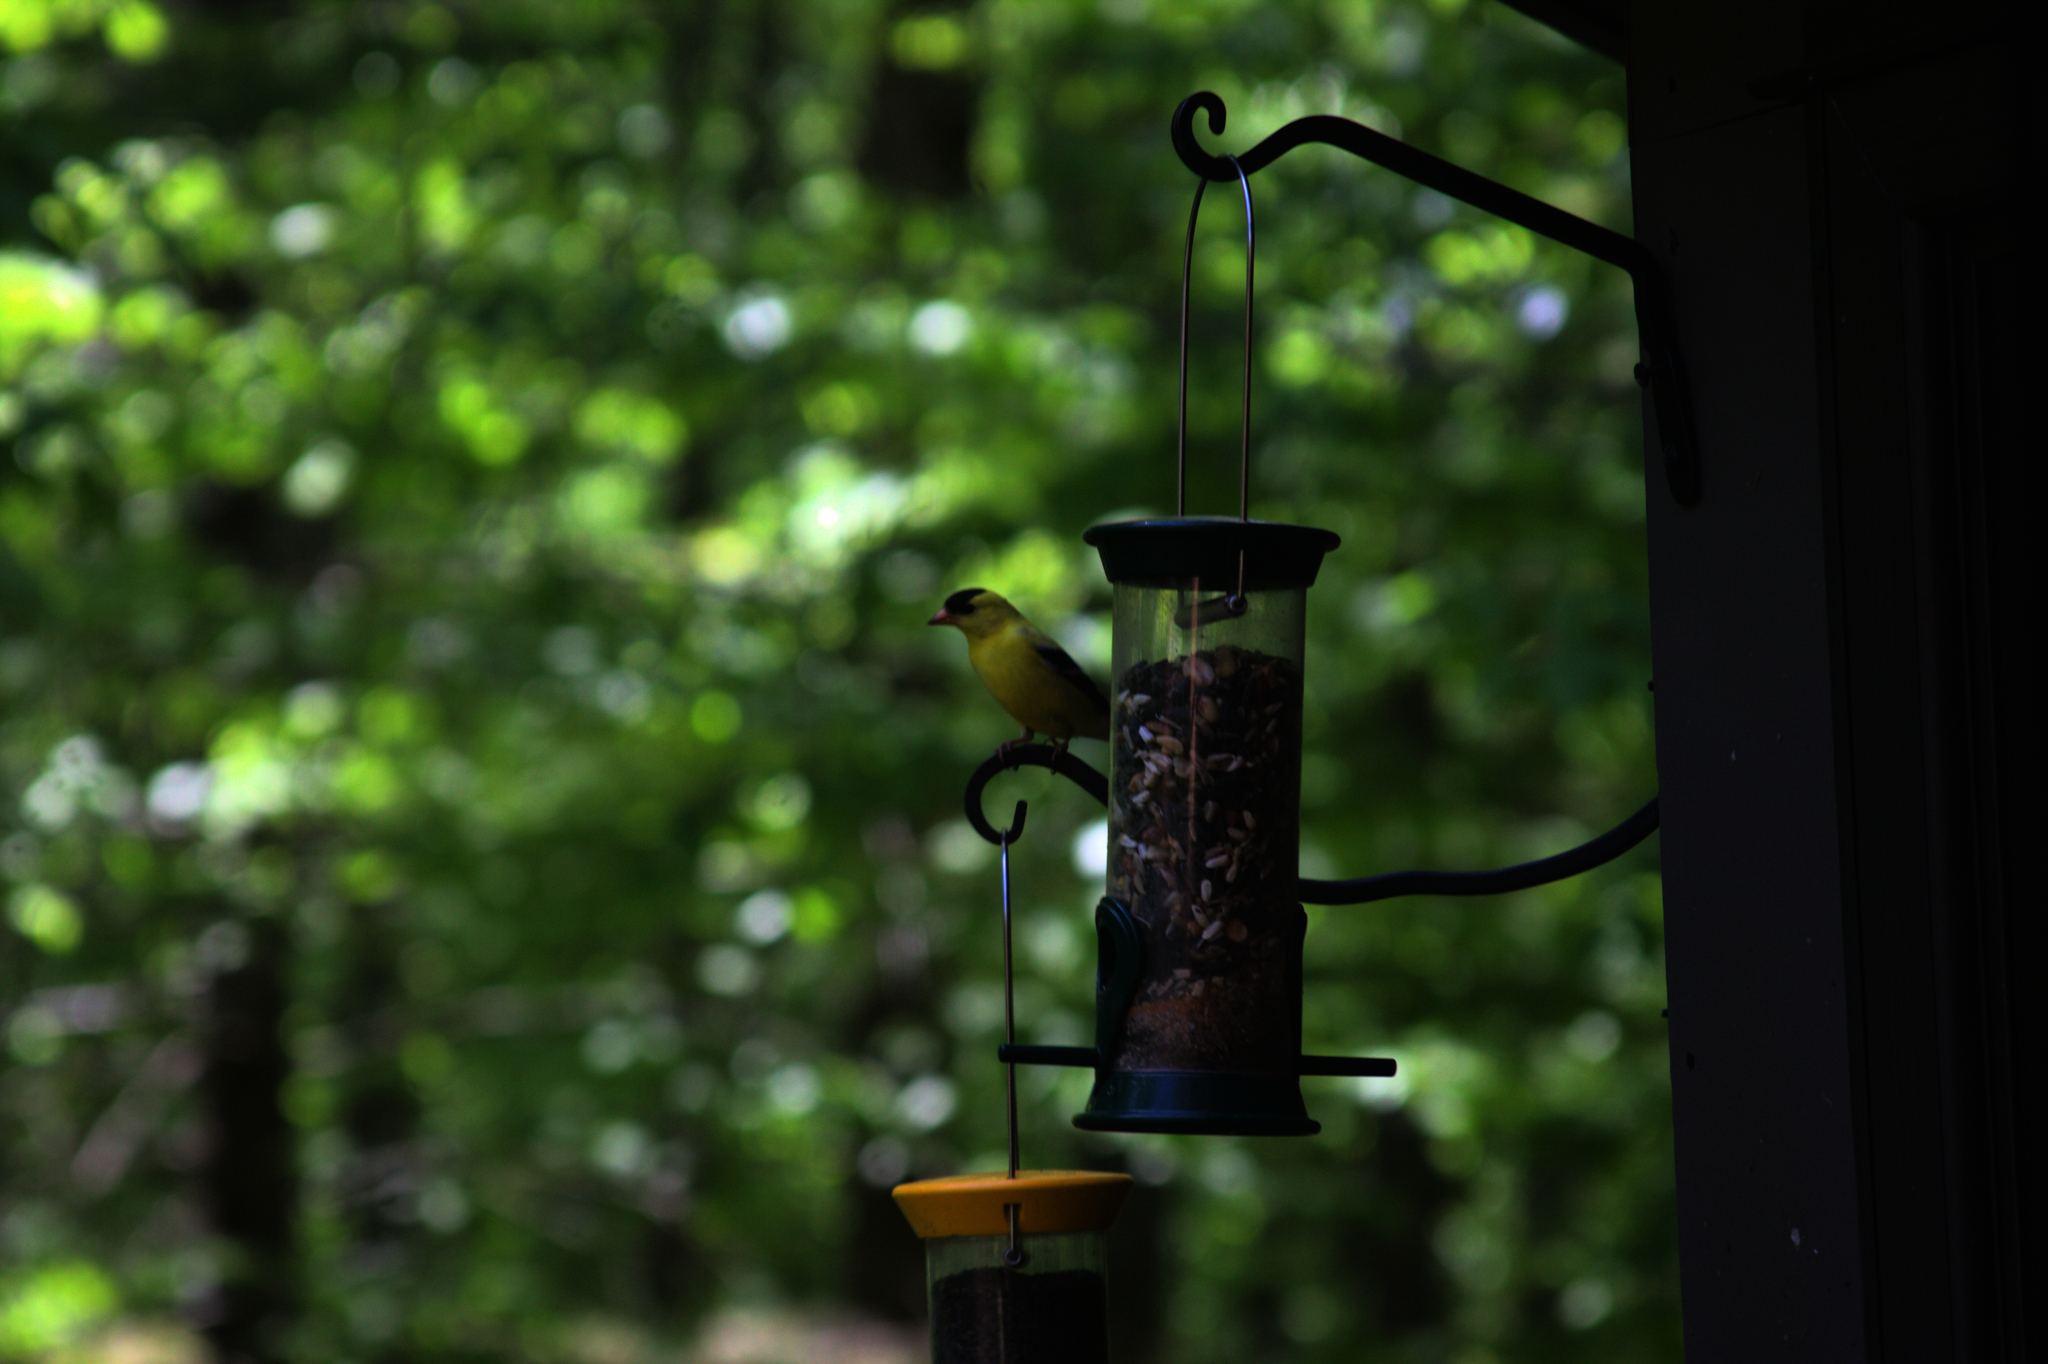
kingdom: Animalia
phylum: Chordata
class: Aves
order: Passeriformes
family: Fringillidae
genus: Spinus
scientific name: Spinus tristis
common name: American goldfinch
